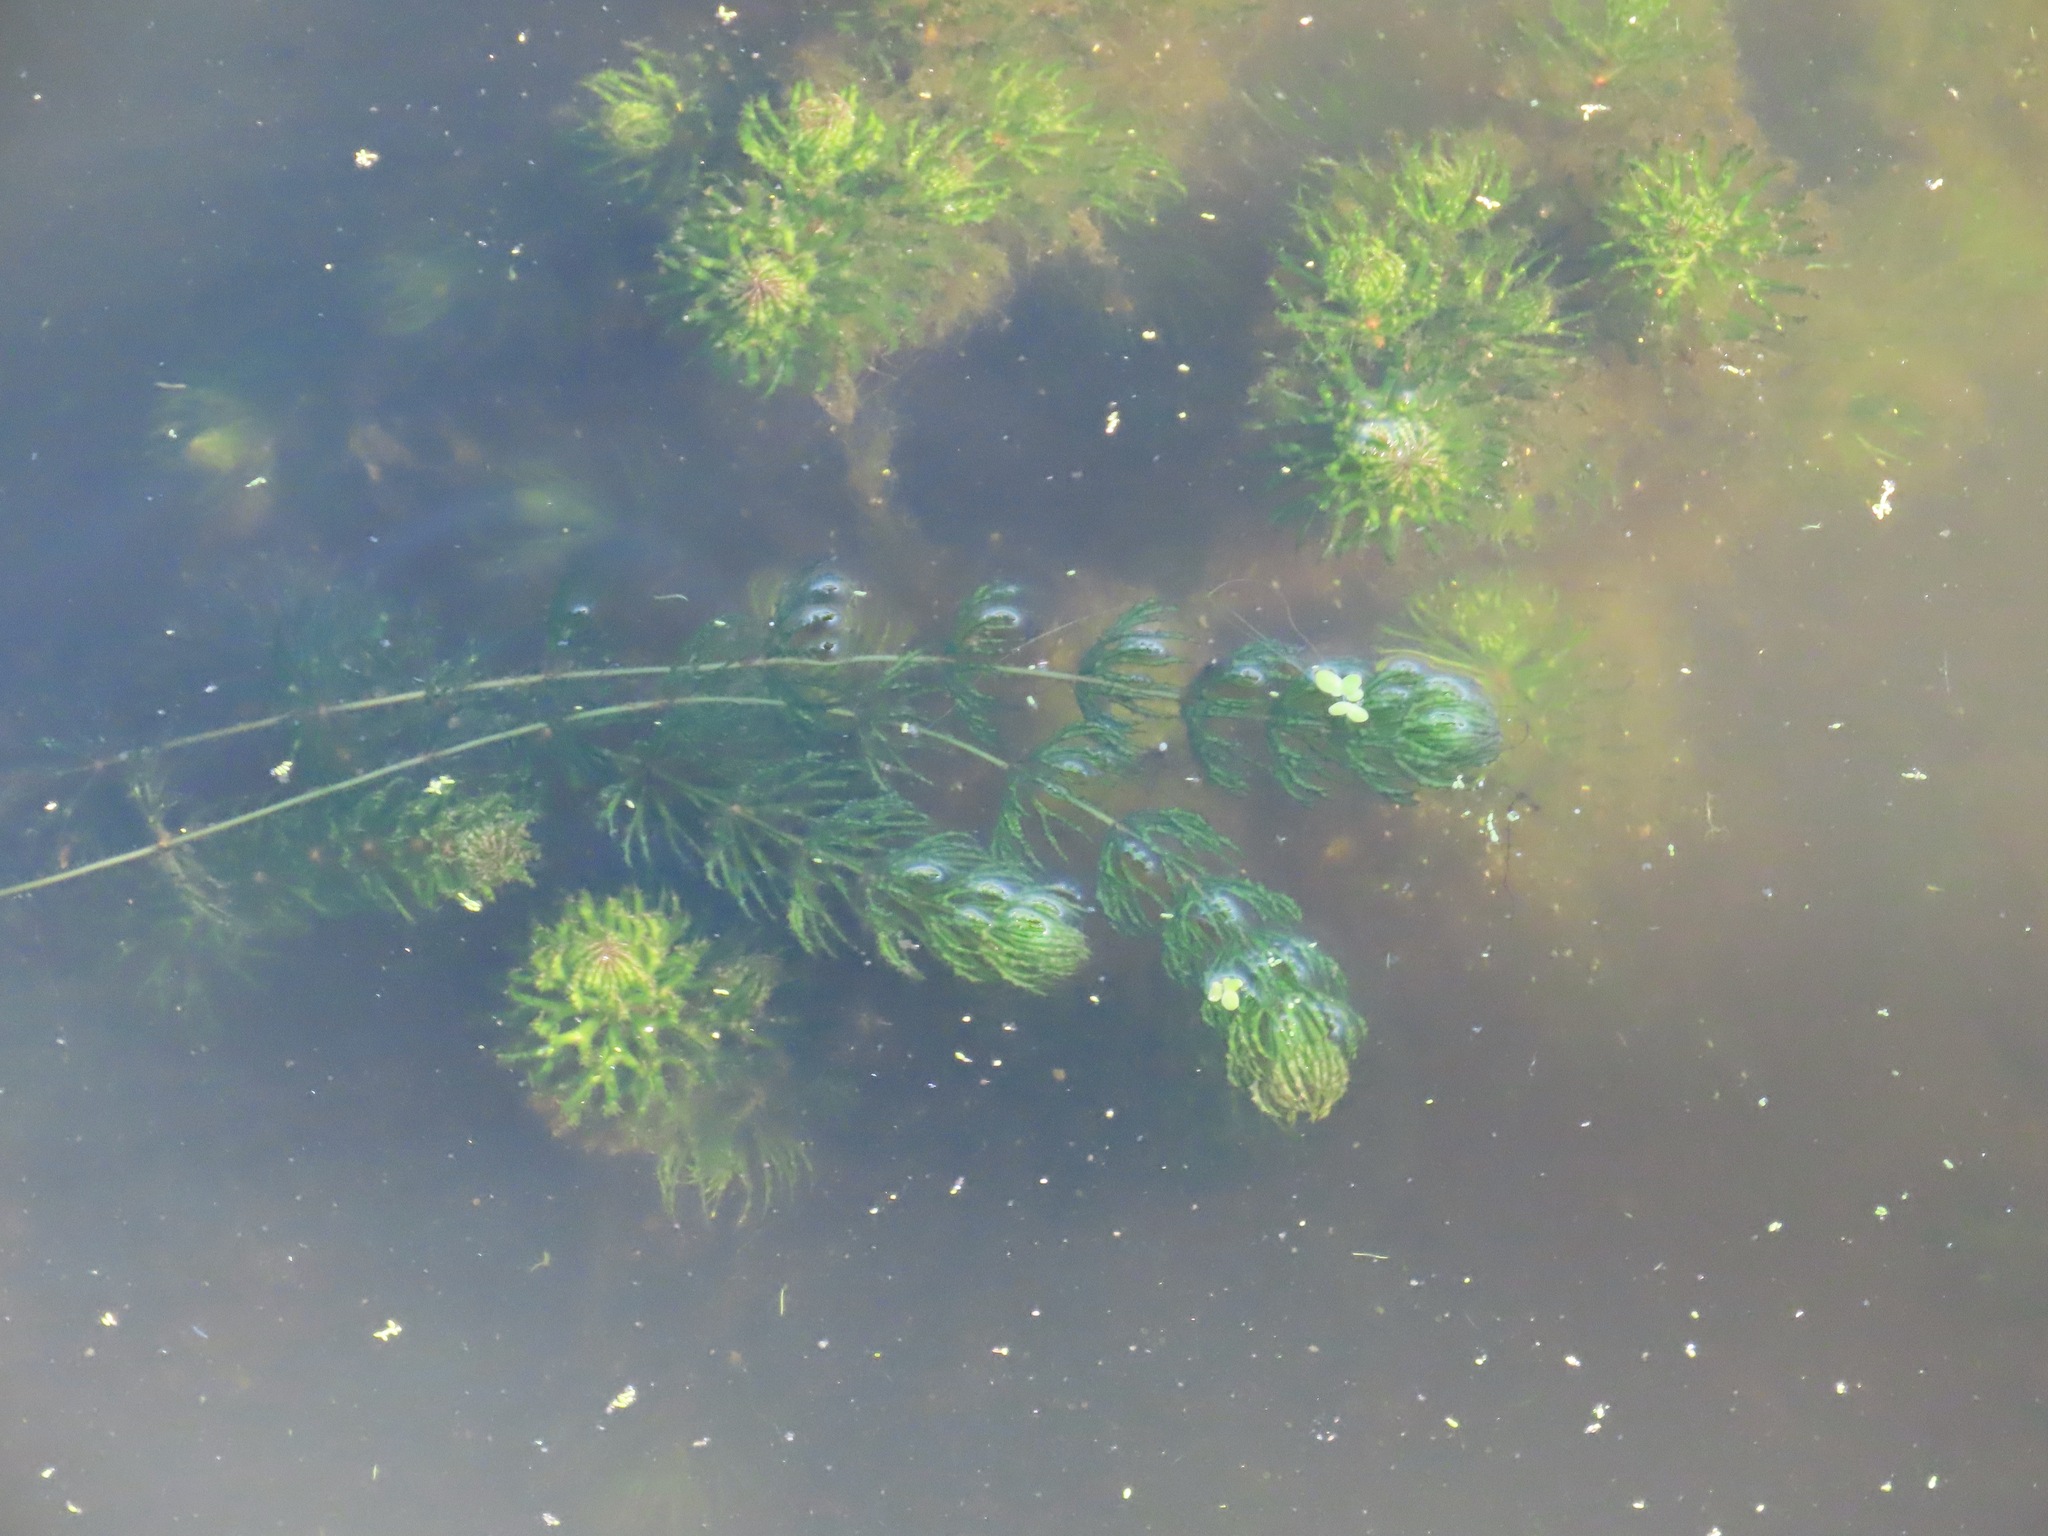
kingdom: Plantae
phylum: Tracheophyta
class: Magnoliopsida
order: Ceratophyllales
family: Ceratophyllaceae
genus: Ceratophyllum
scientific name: Ceratophyllum demersum
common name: Rigid hornwort
